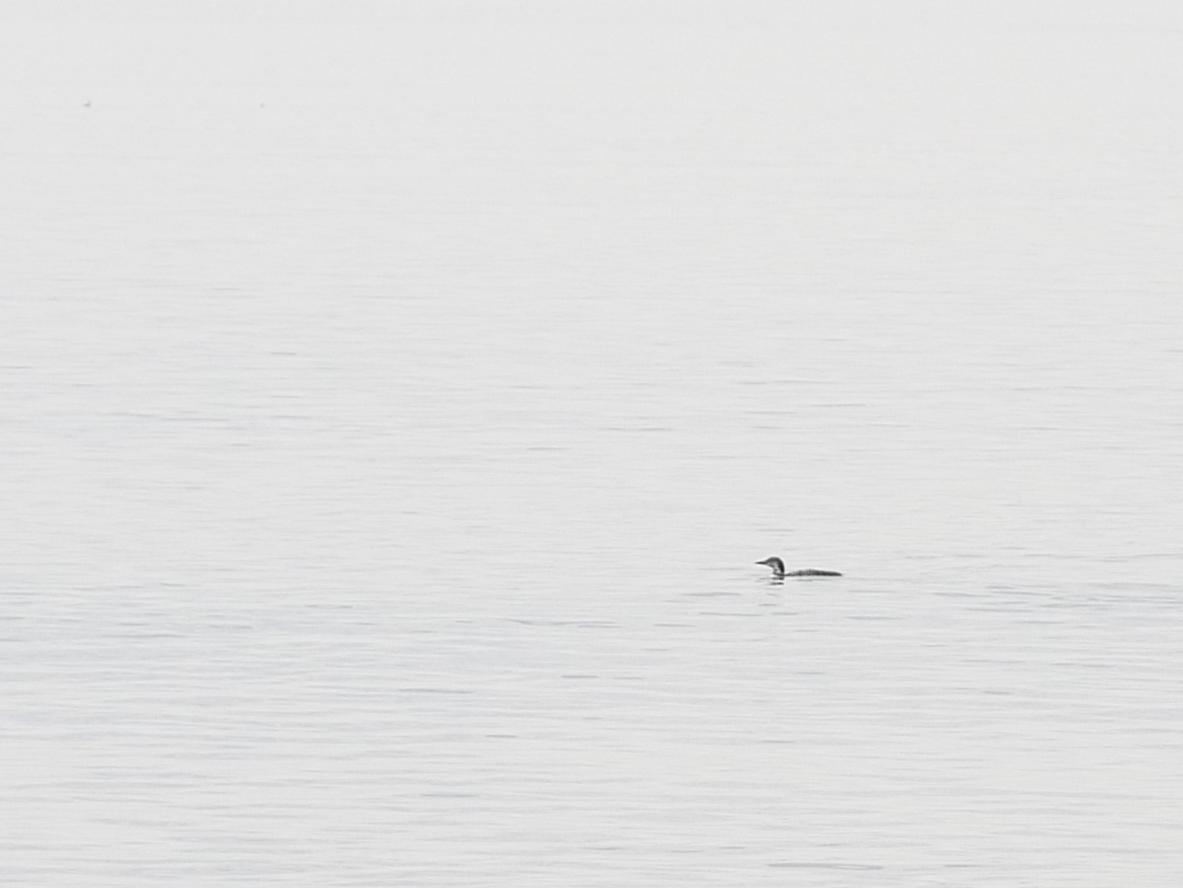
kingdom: Animalia
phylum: Chordata
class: Aves
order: Gaviiformes
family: Gaviidae
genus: Gavia
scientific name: Gavia immer
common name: Common loon
